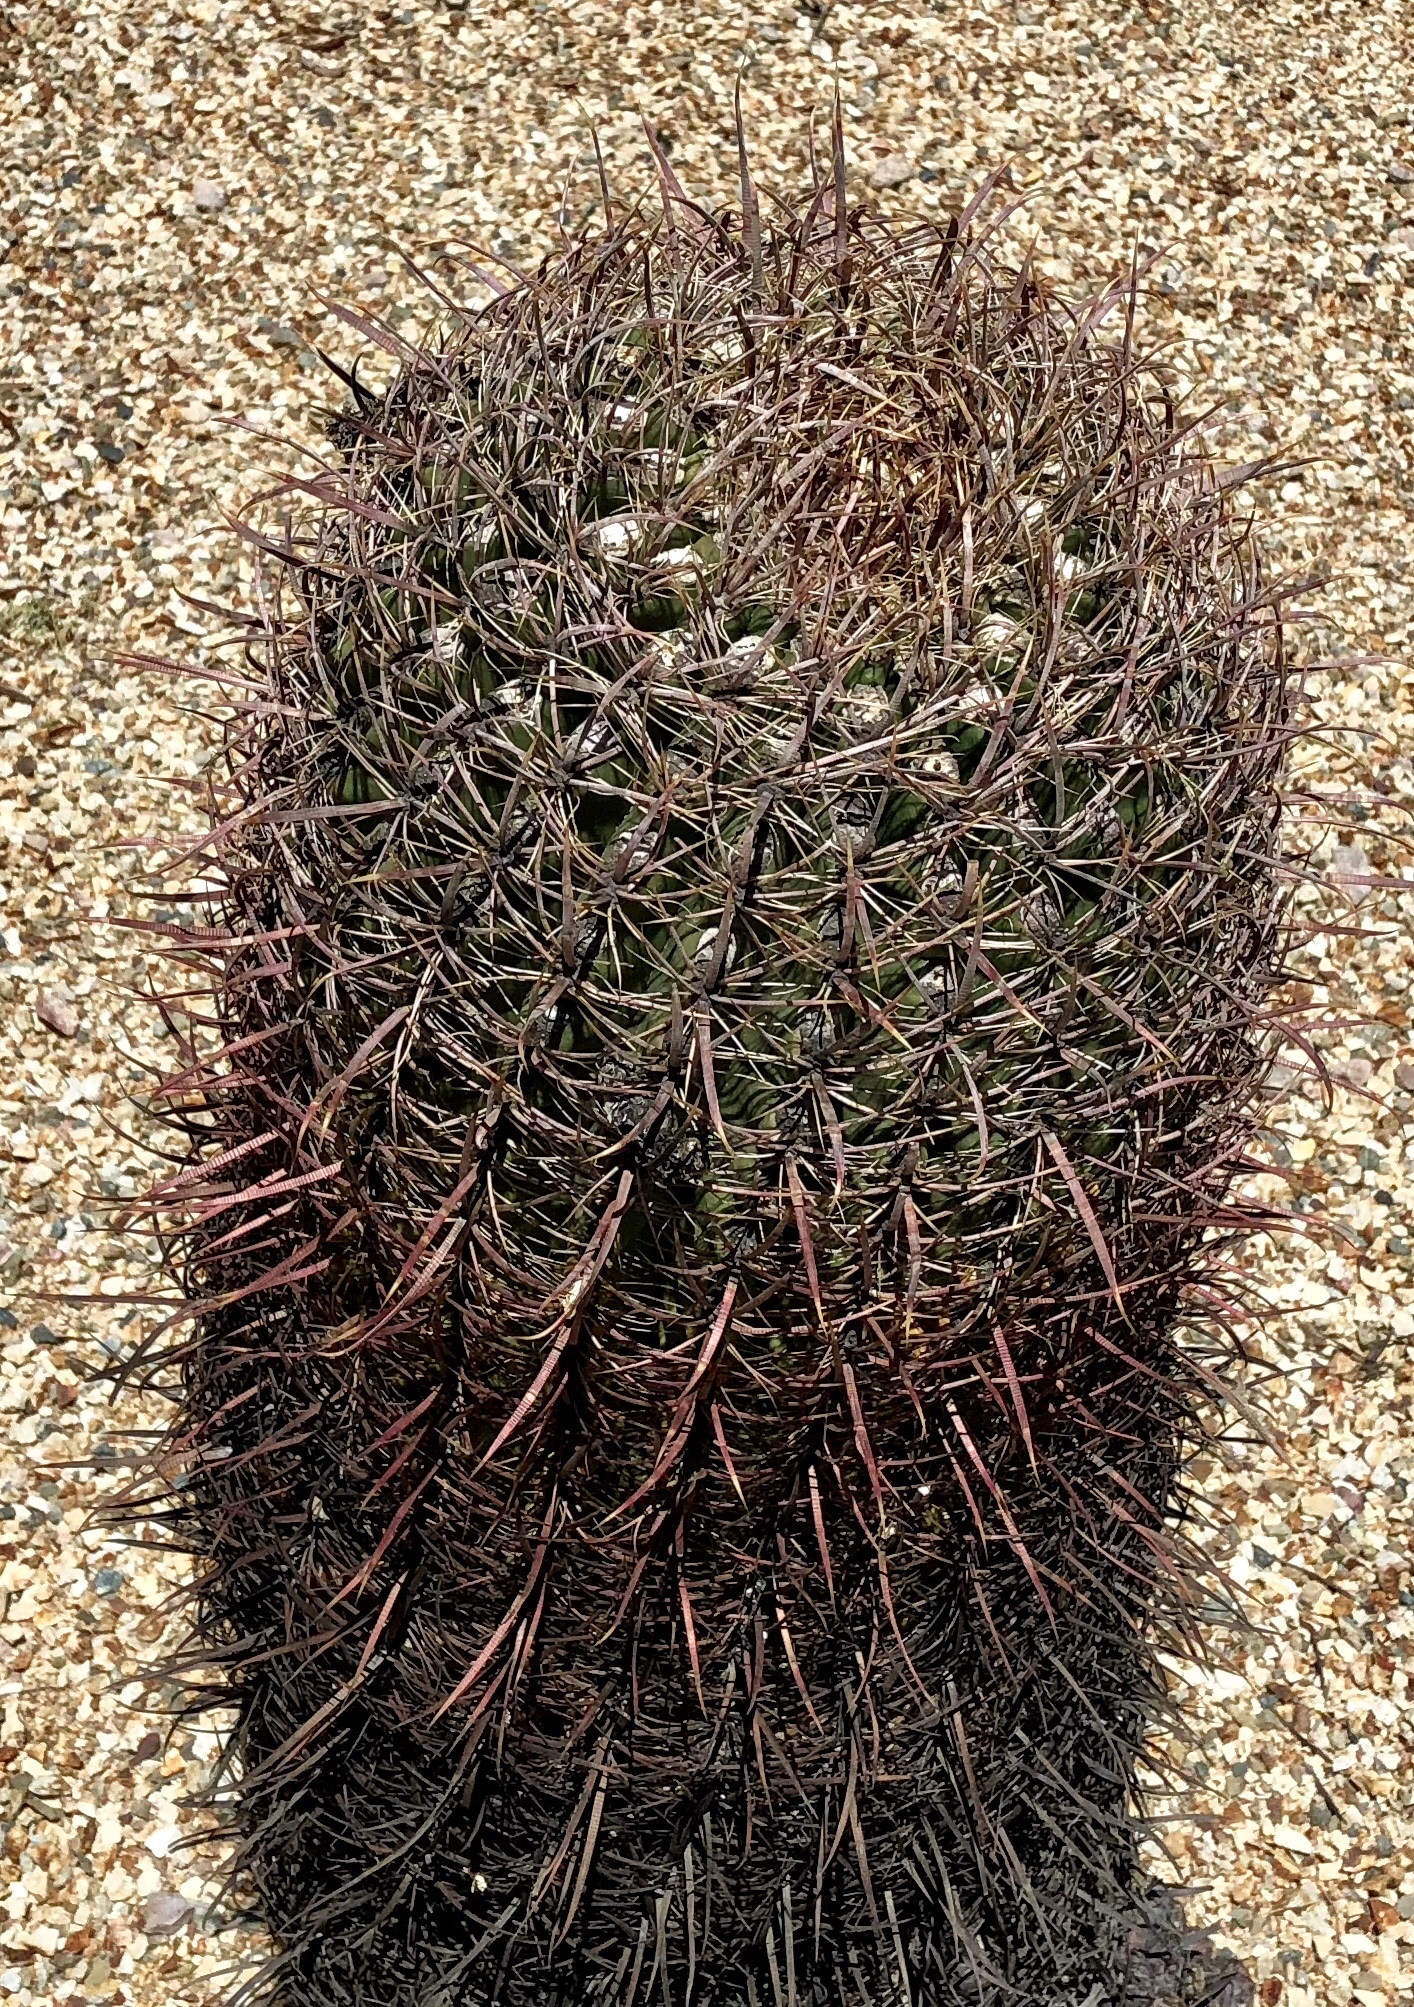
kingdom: Plantae
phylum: Tracheophyta
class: Magnoliopsida
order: Caryophyllales
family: Cactaceae
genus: Ferocactus
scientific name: Ferocactus cylindraceus
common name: California barrel cactus
